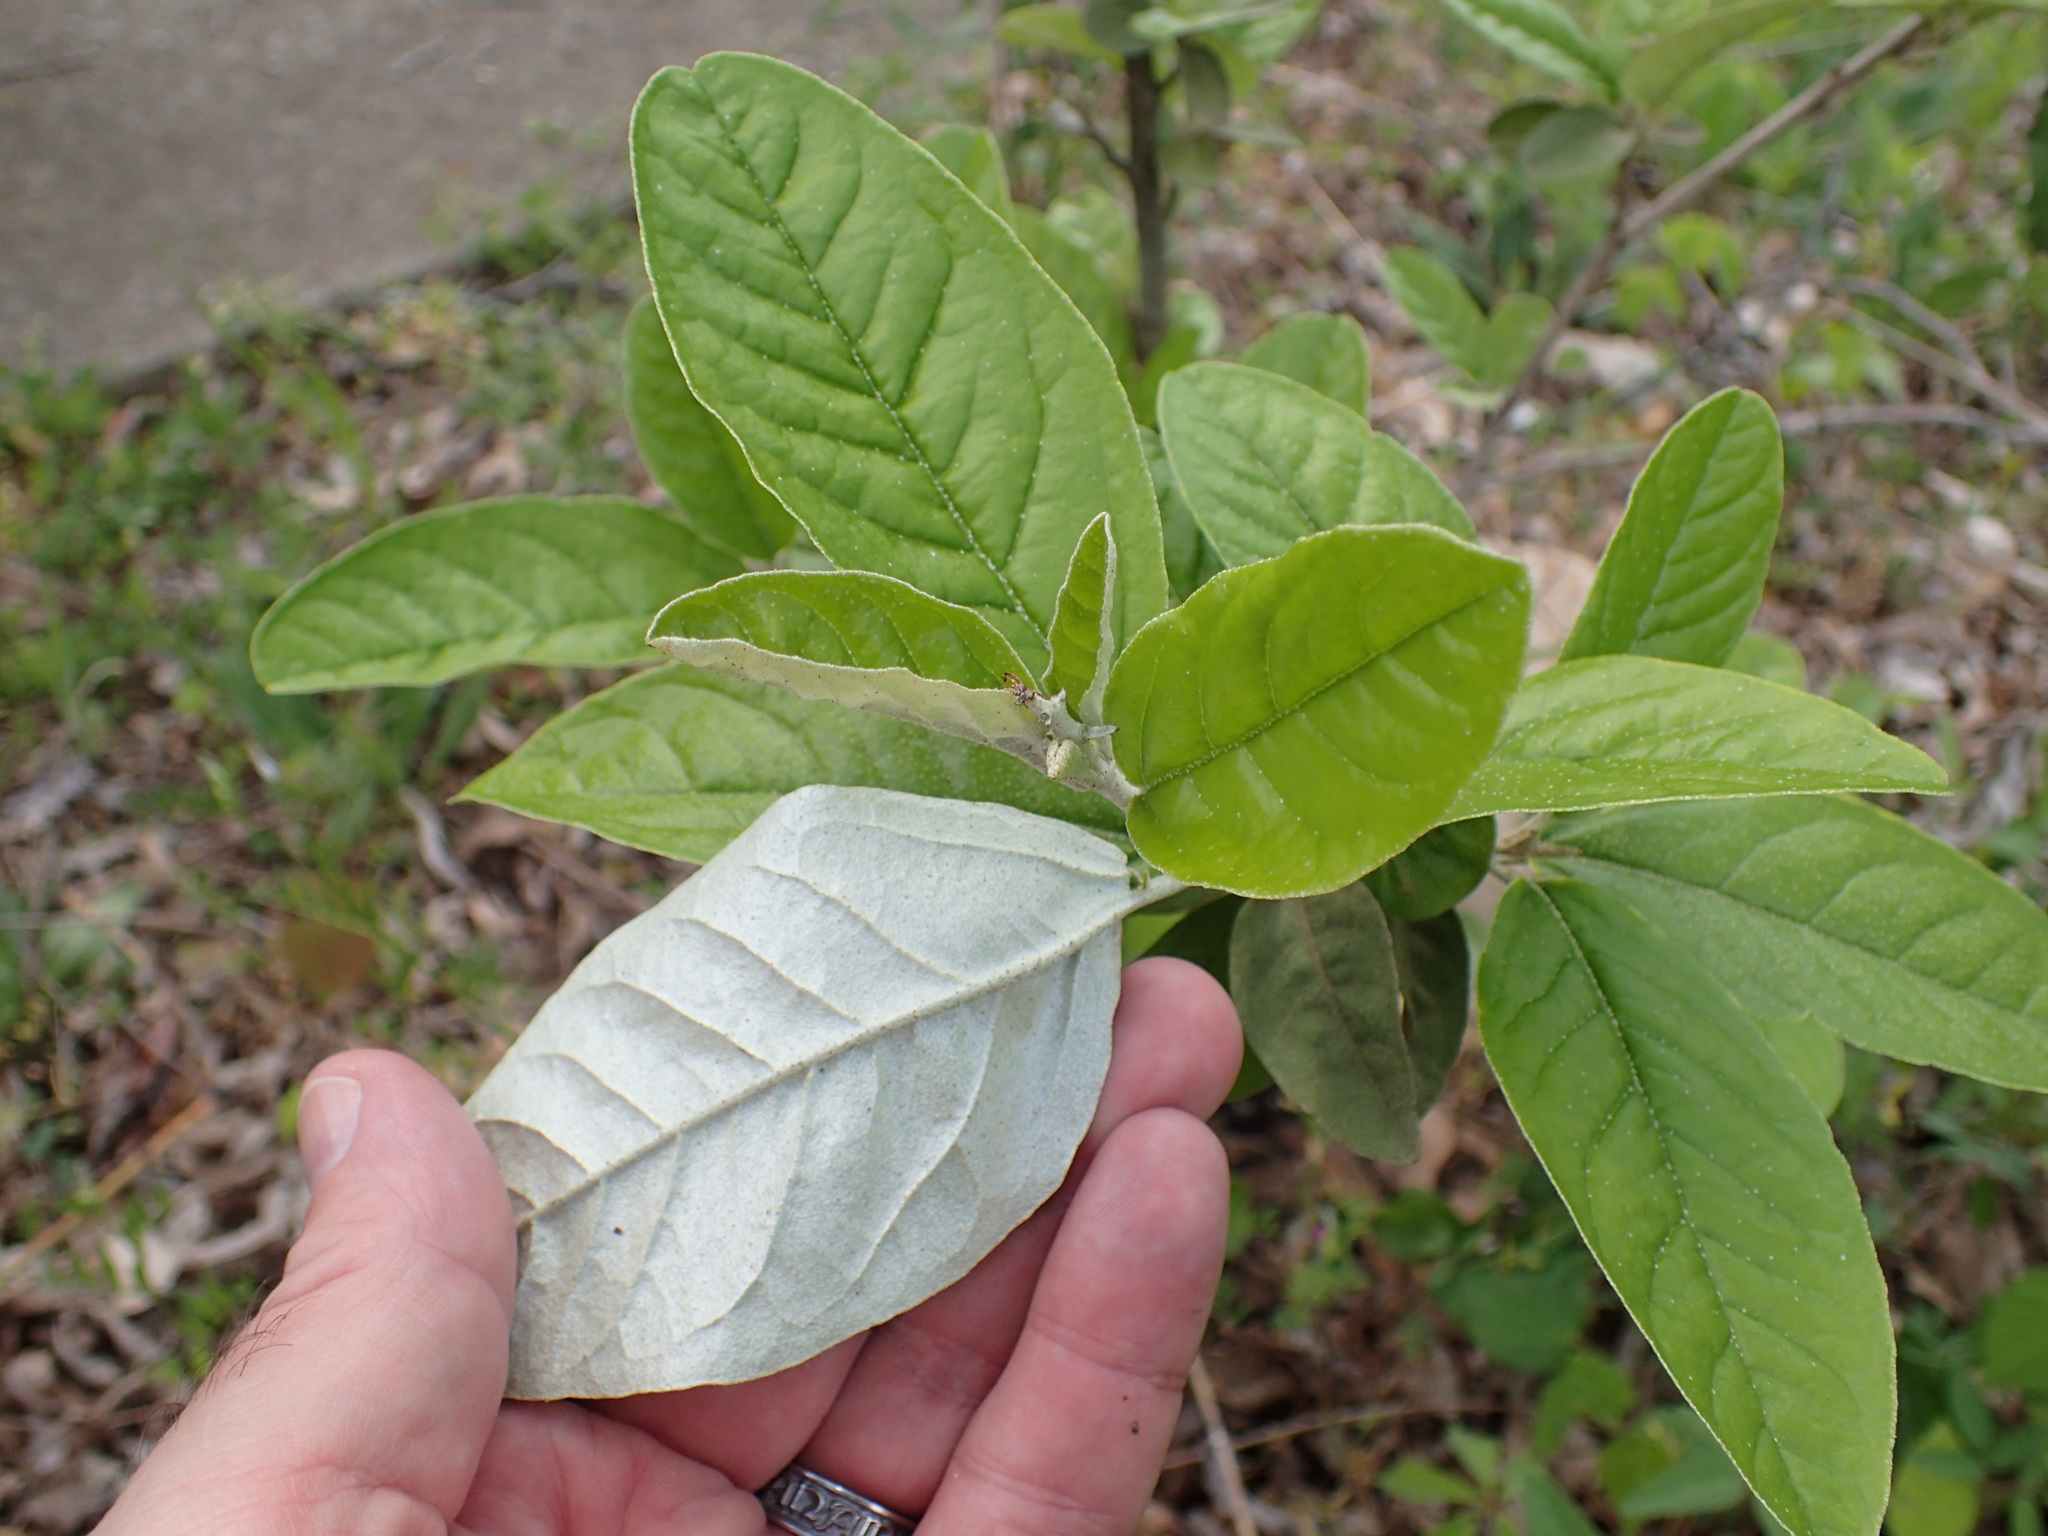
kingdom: Plantae
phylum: Tracheophyta
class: Magnoliopsida
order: Malpighiales
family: Euphorbiaceae
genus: Croton
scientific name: Croton alabamensis
